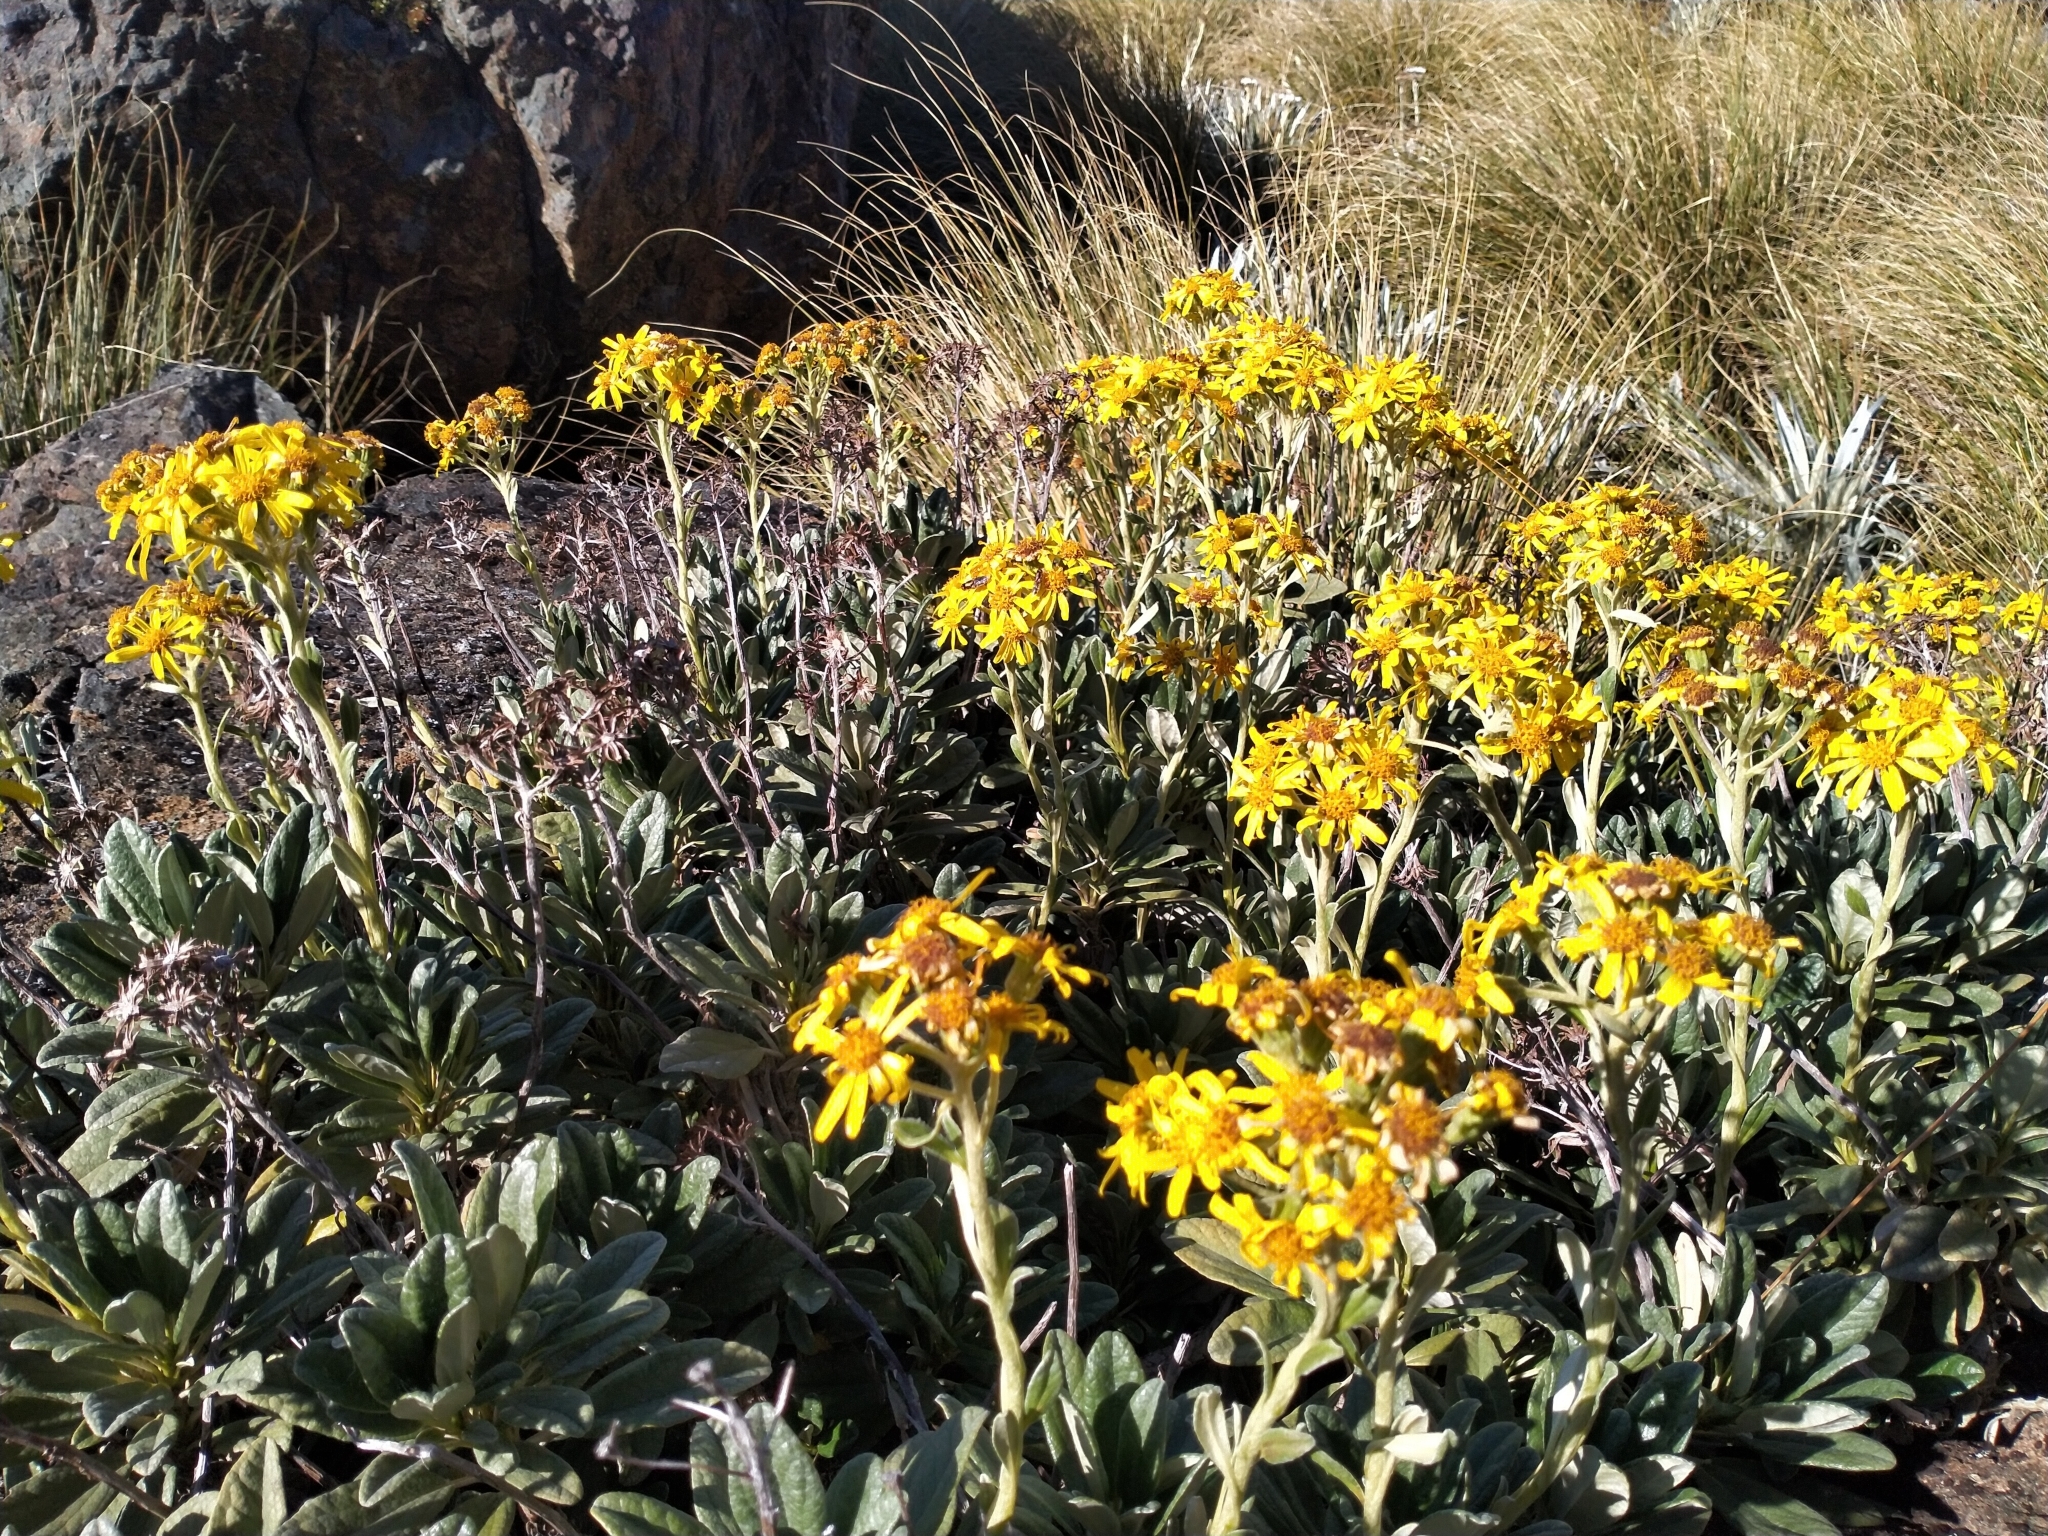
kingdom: Plantae
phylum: Tracheophyta
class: Magnoliopsida
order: Asterales
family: Asteraceae
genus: Brachyglottis
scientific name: Brachyglottis revoluta
